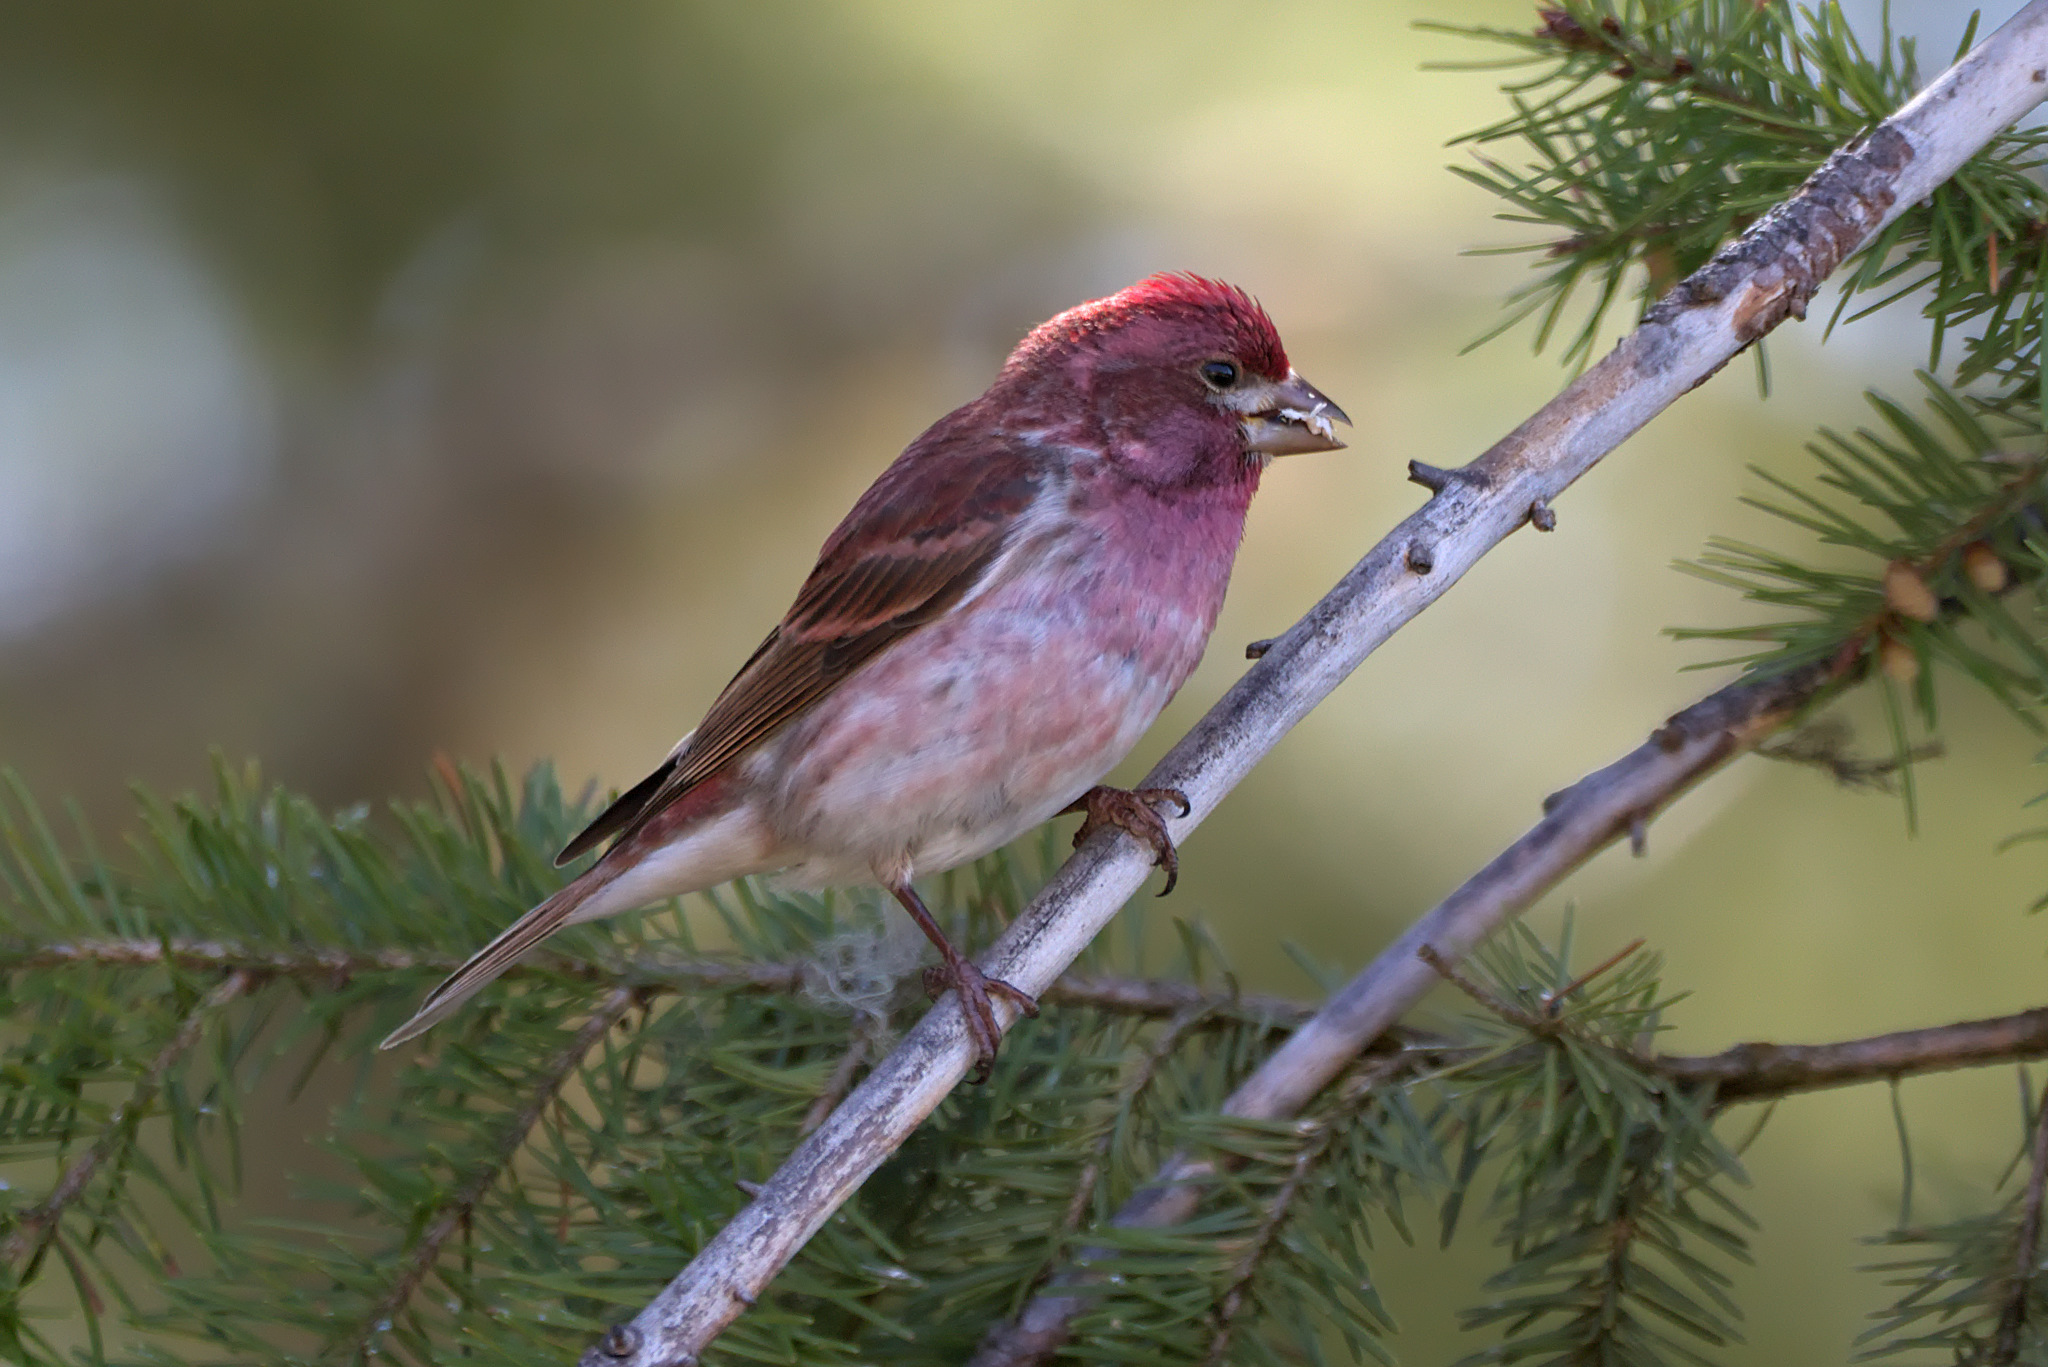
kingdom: Animalia
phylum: Chordata
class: Aves
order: Passeriformes
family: Fringillidae
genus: Haemorhous
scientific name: Haemorhous purpureus
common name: Purple finch
